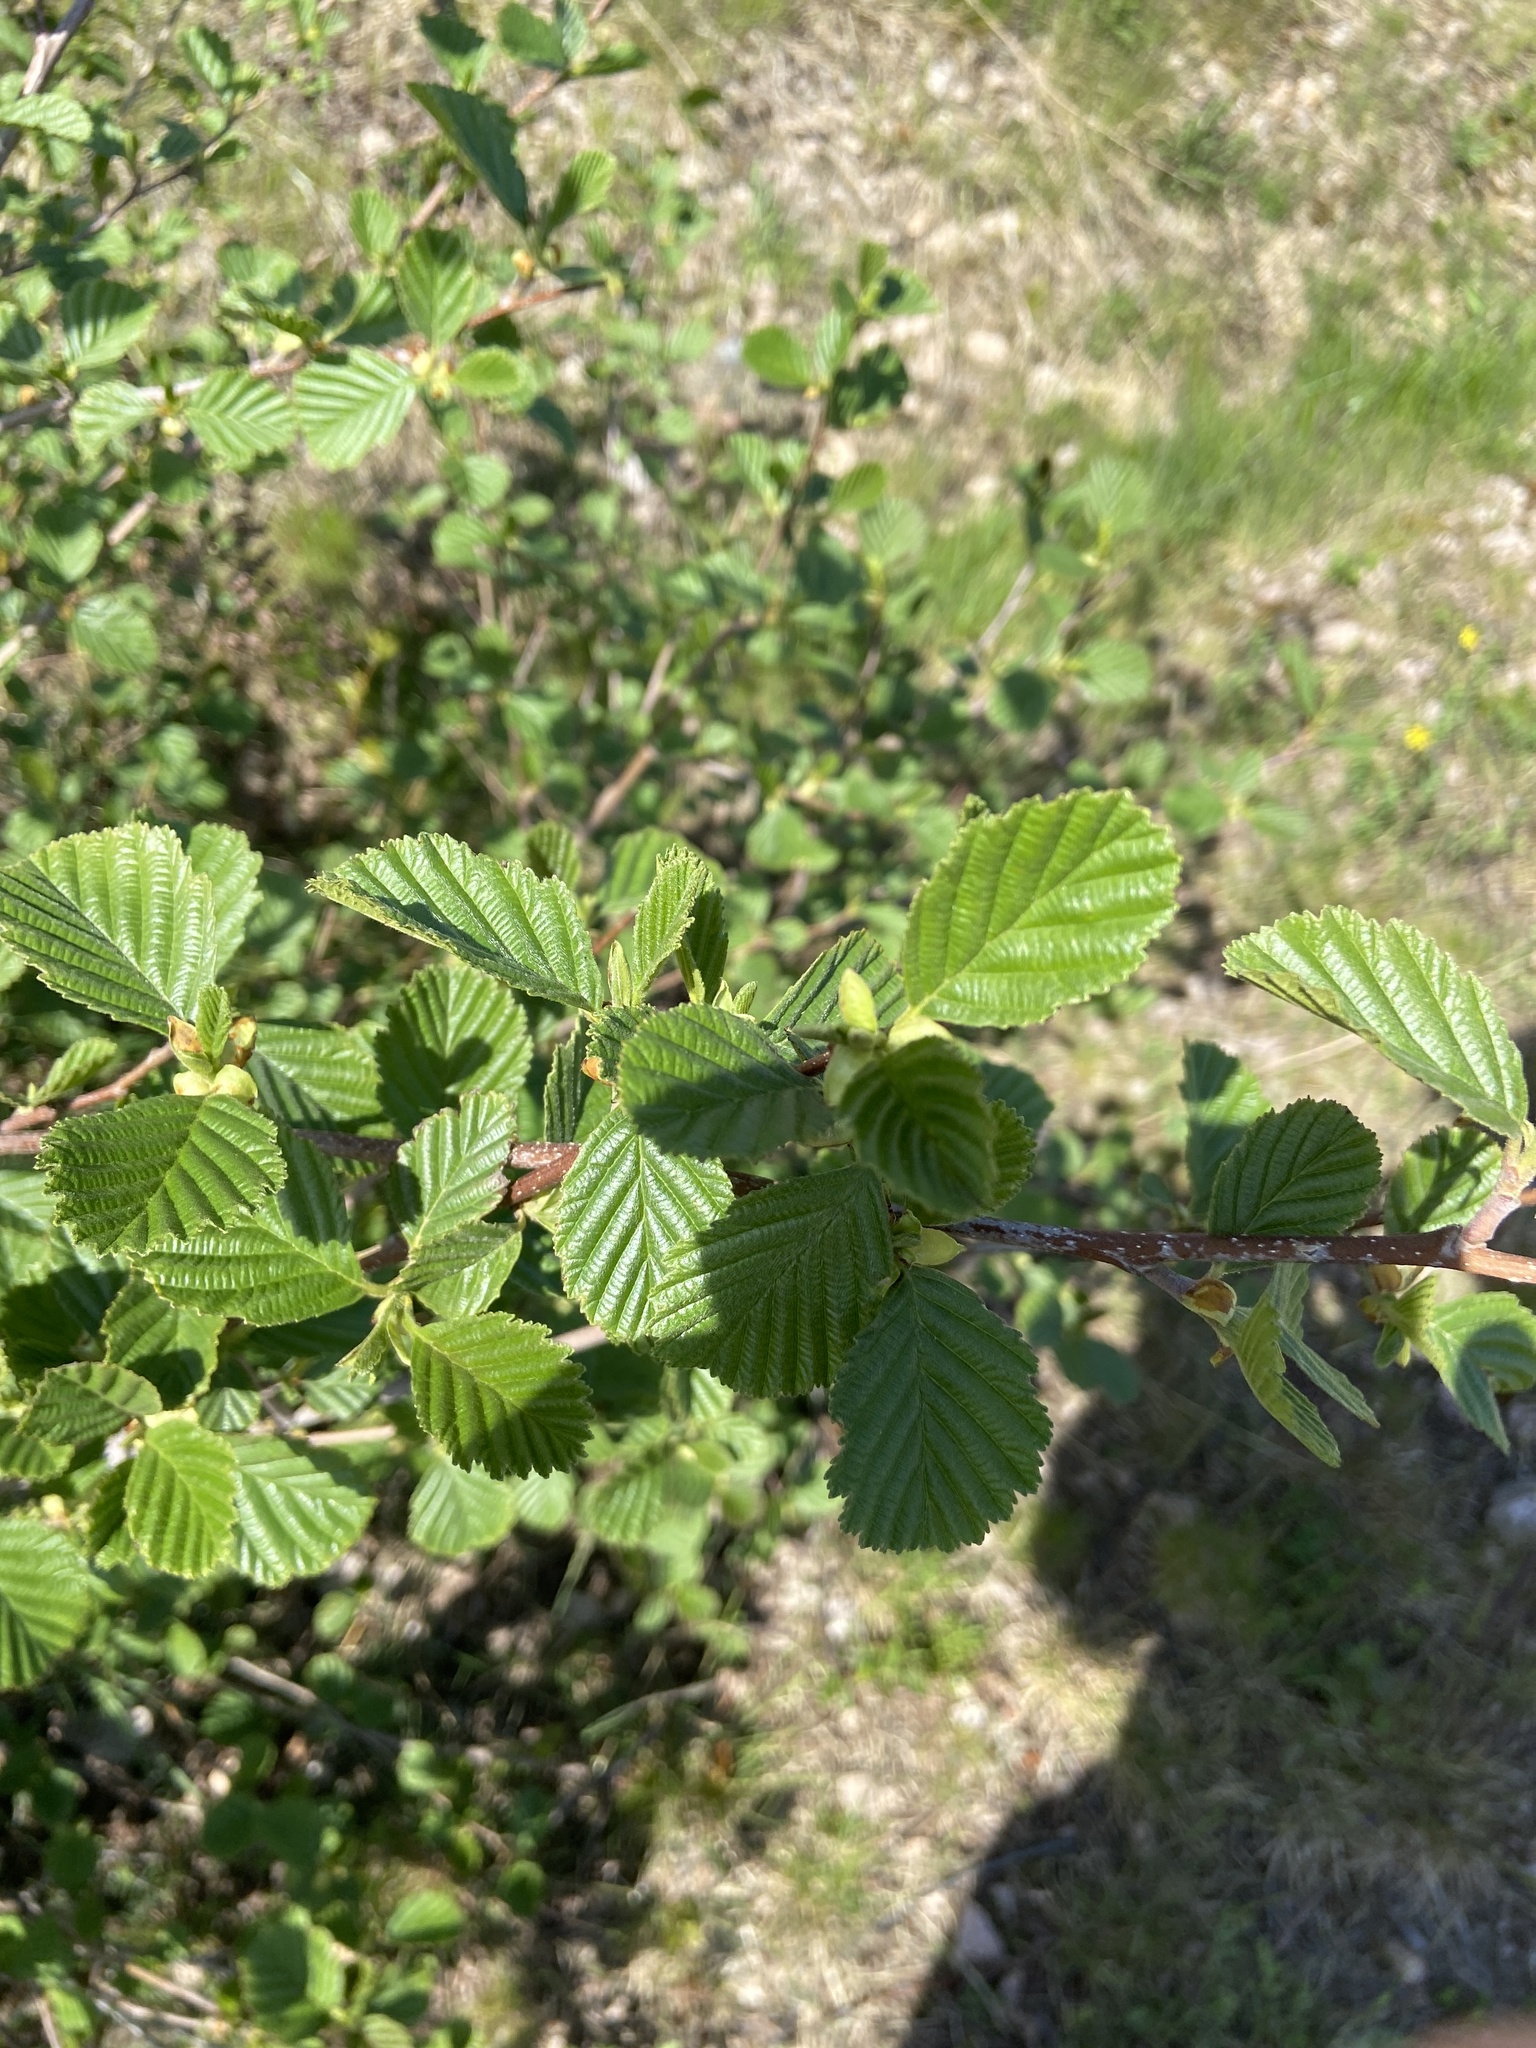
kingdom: Plantae
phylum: Tracheophyta
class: Magnoliopsida
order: Fagales
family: Betulaceae
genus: Alnus
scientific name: Alnus glutinosa
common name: Black alder
